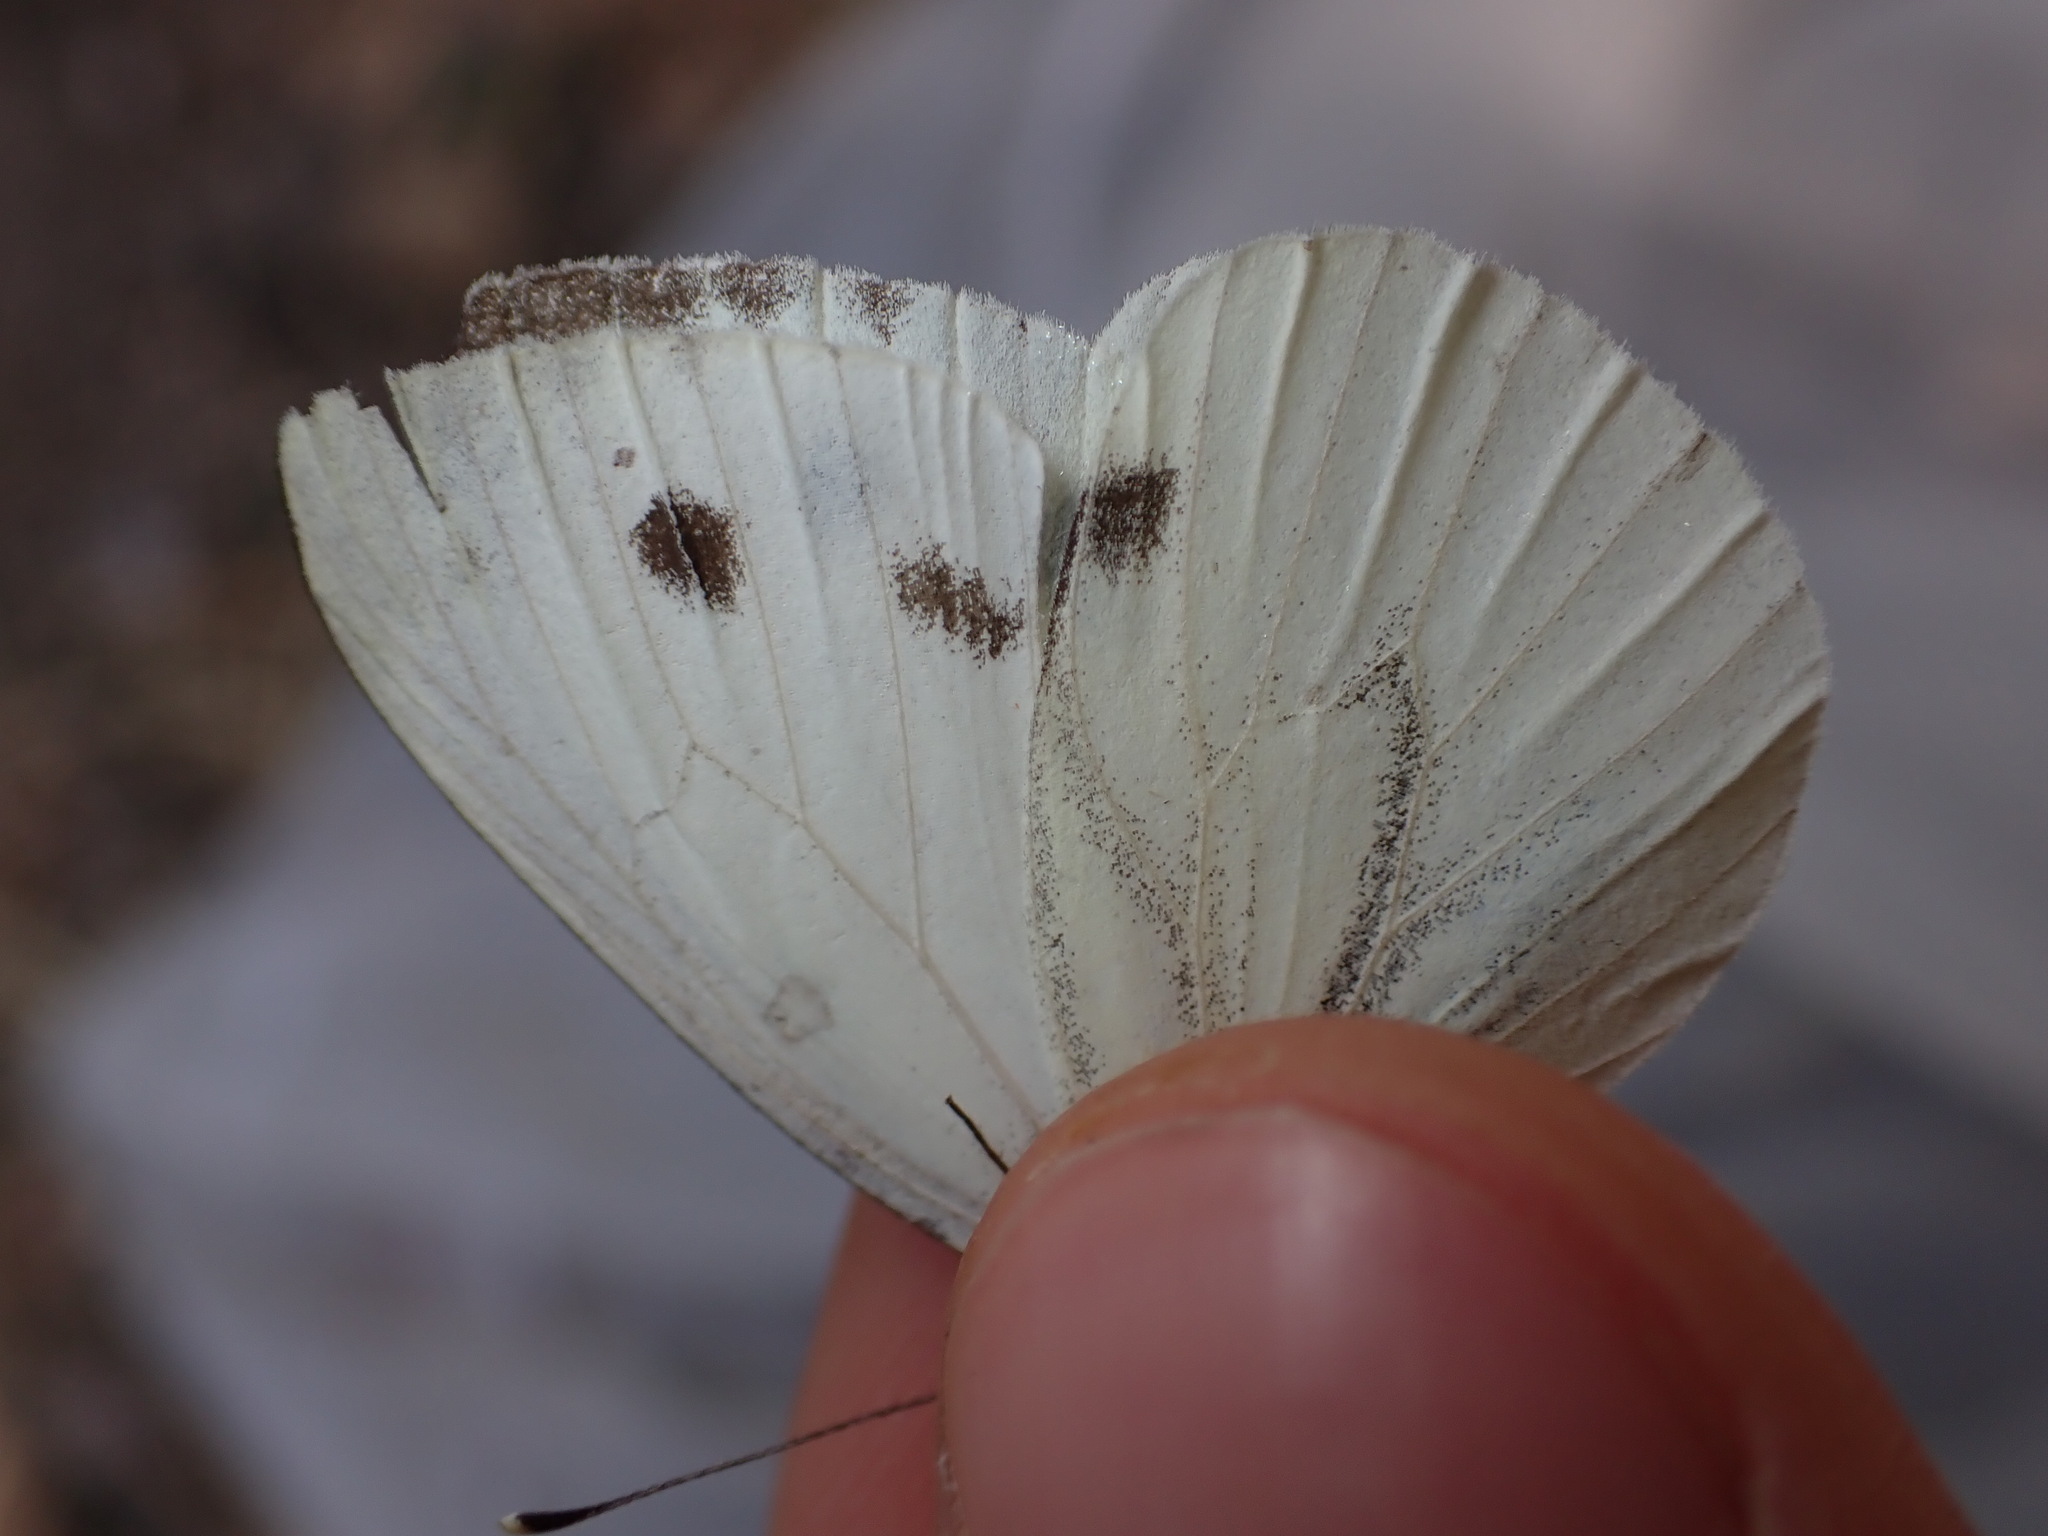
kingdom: Animalia
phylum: Arthropoda
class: Insecta
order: Lepidoptera
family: Pieridae
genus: Pieris
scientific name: Pieris napi
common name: Green-veined white
